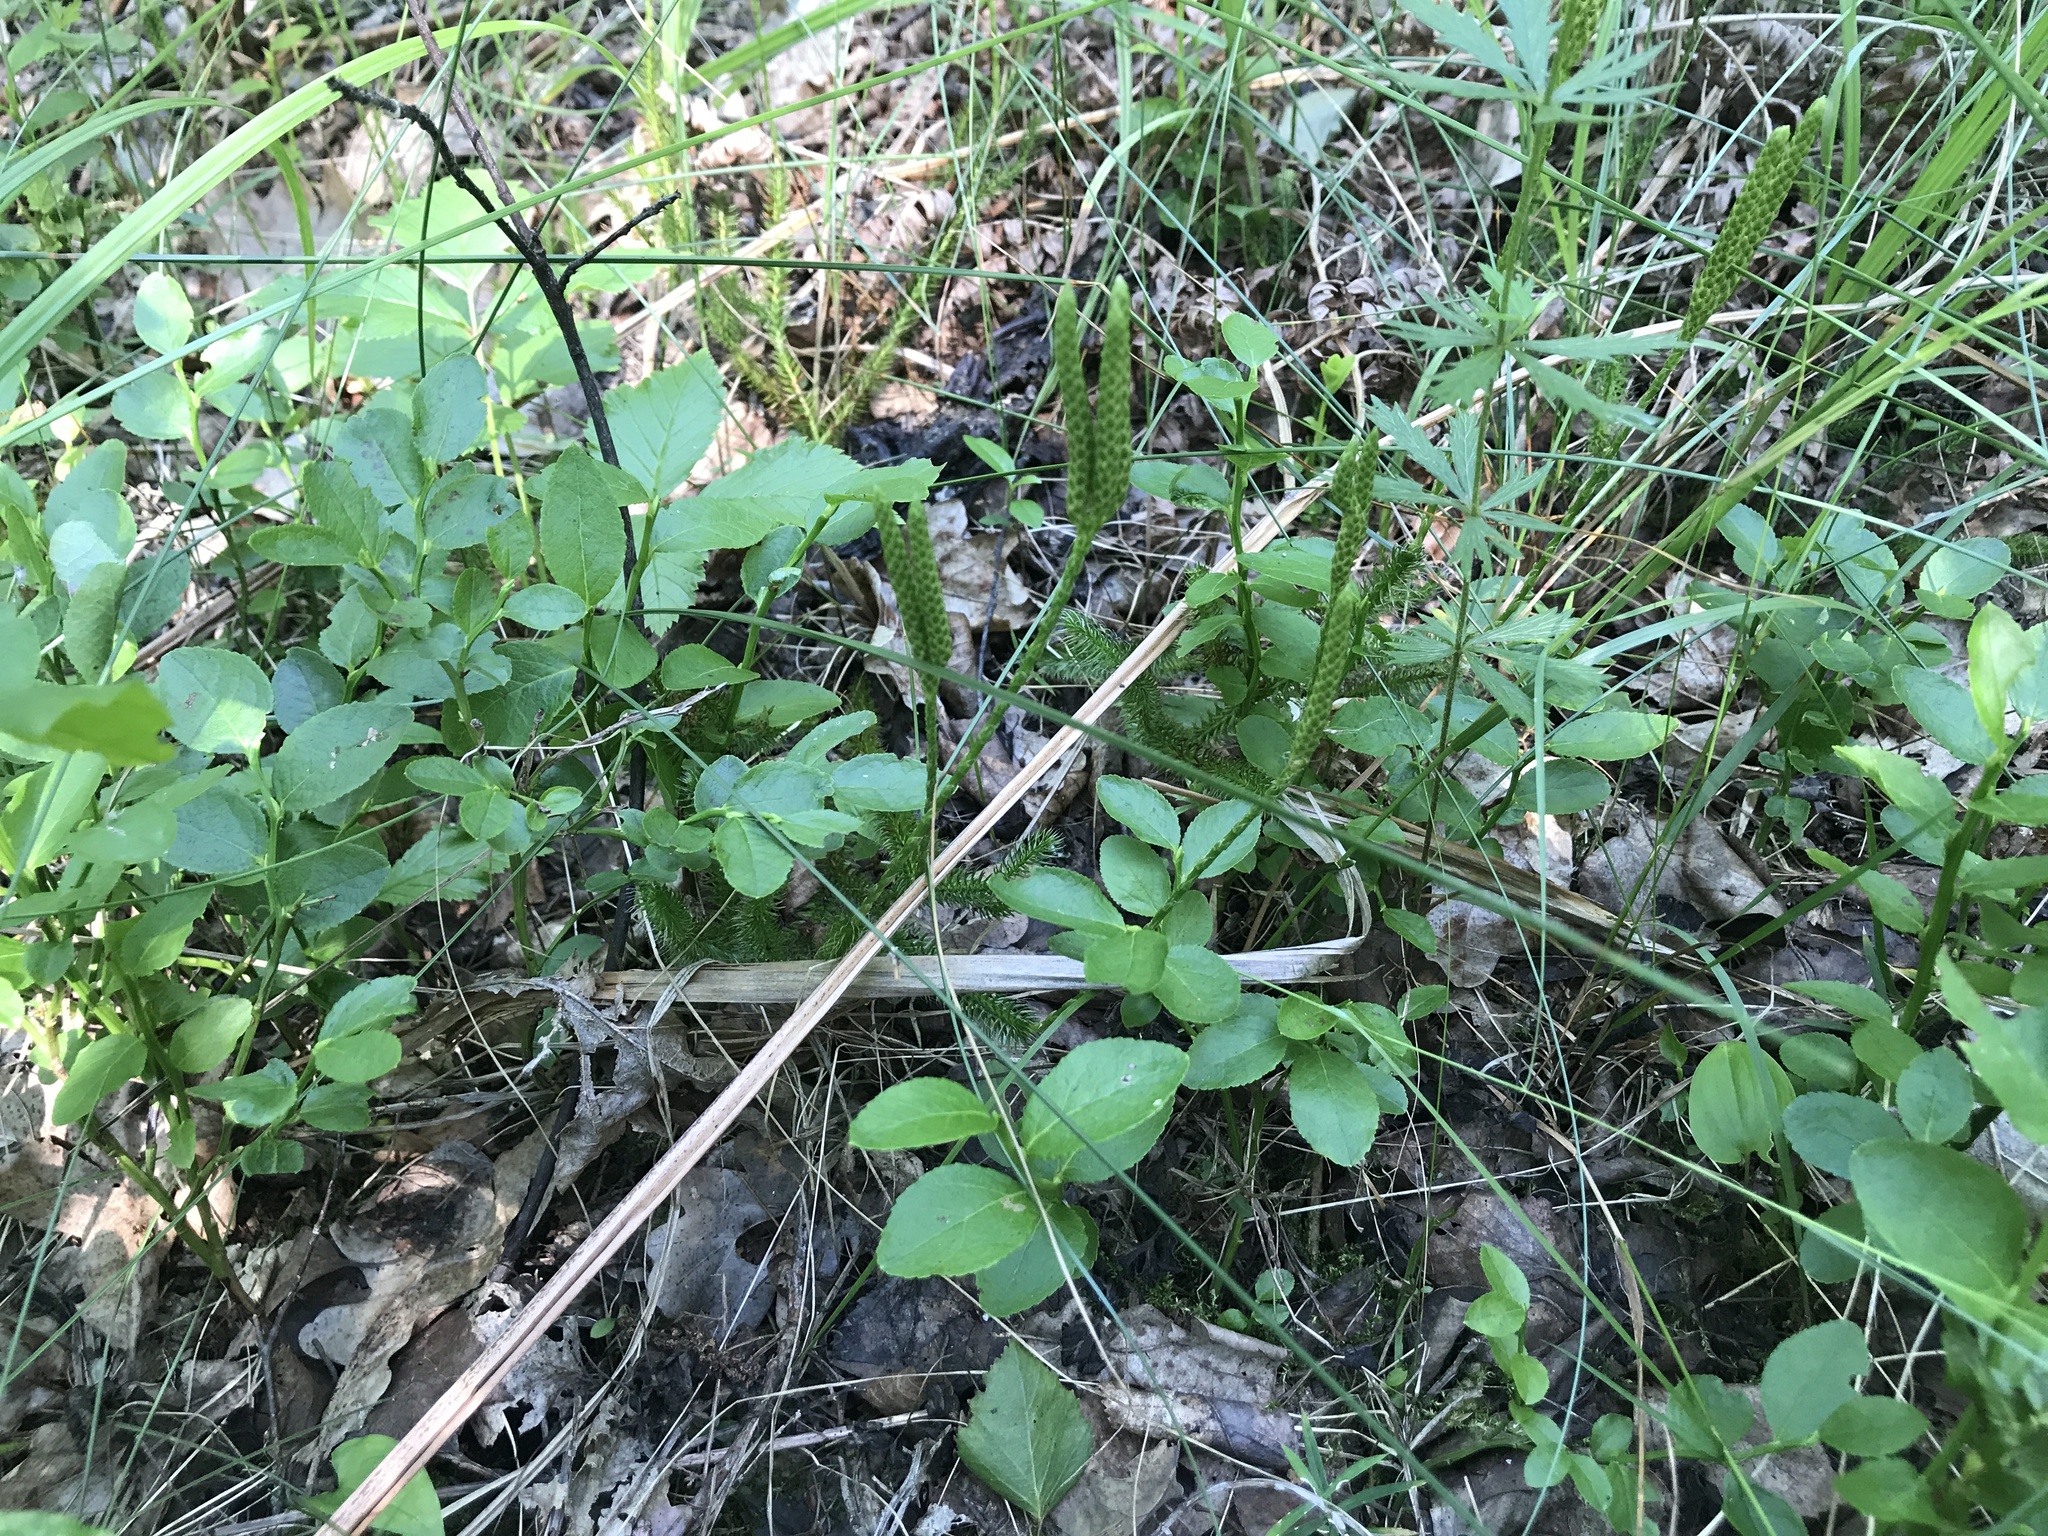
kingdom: Plantae
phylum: Tracheophyta
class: Magnoliopsida
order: Ericales
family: Ericaceae
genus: Vaccinium
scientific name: Vaccinium myrtillus
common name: Bilberry
